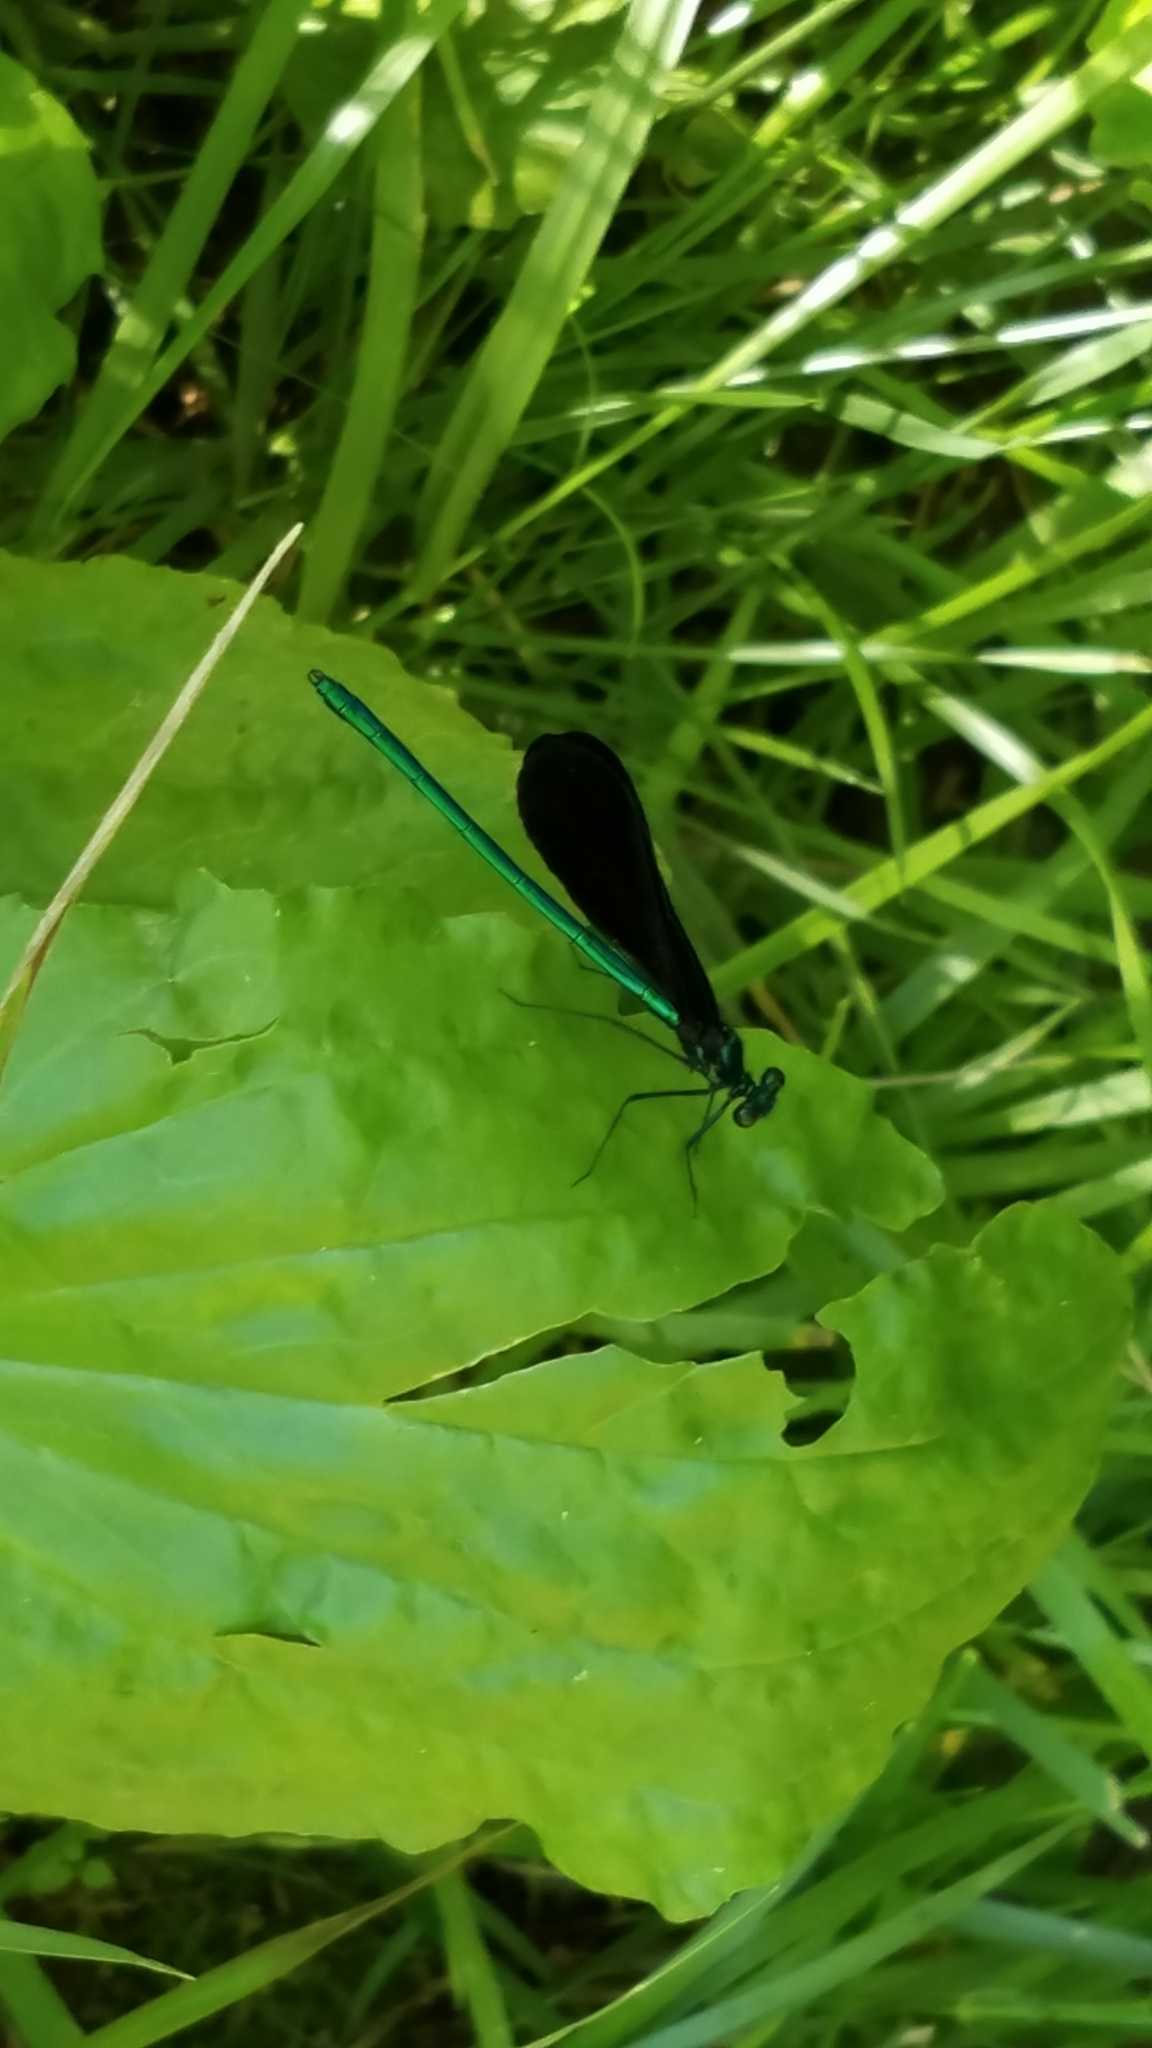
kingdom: Animalia
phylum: Arthropoda
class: Insecta
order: Odonata
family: Calopterygidae
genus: Calopteryx
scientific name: Calopteryx maculata
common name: Ebony jewelwing
